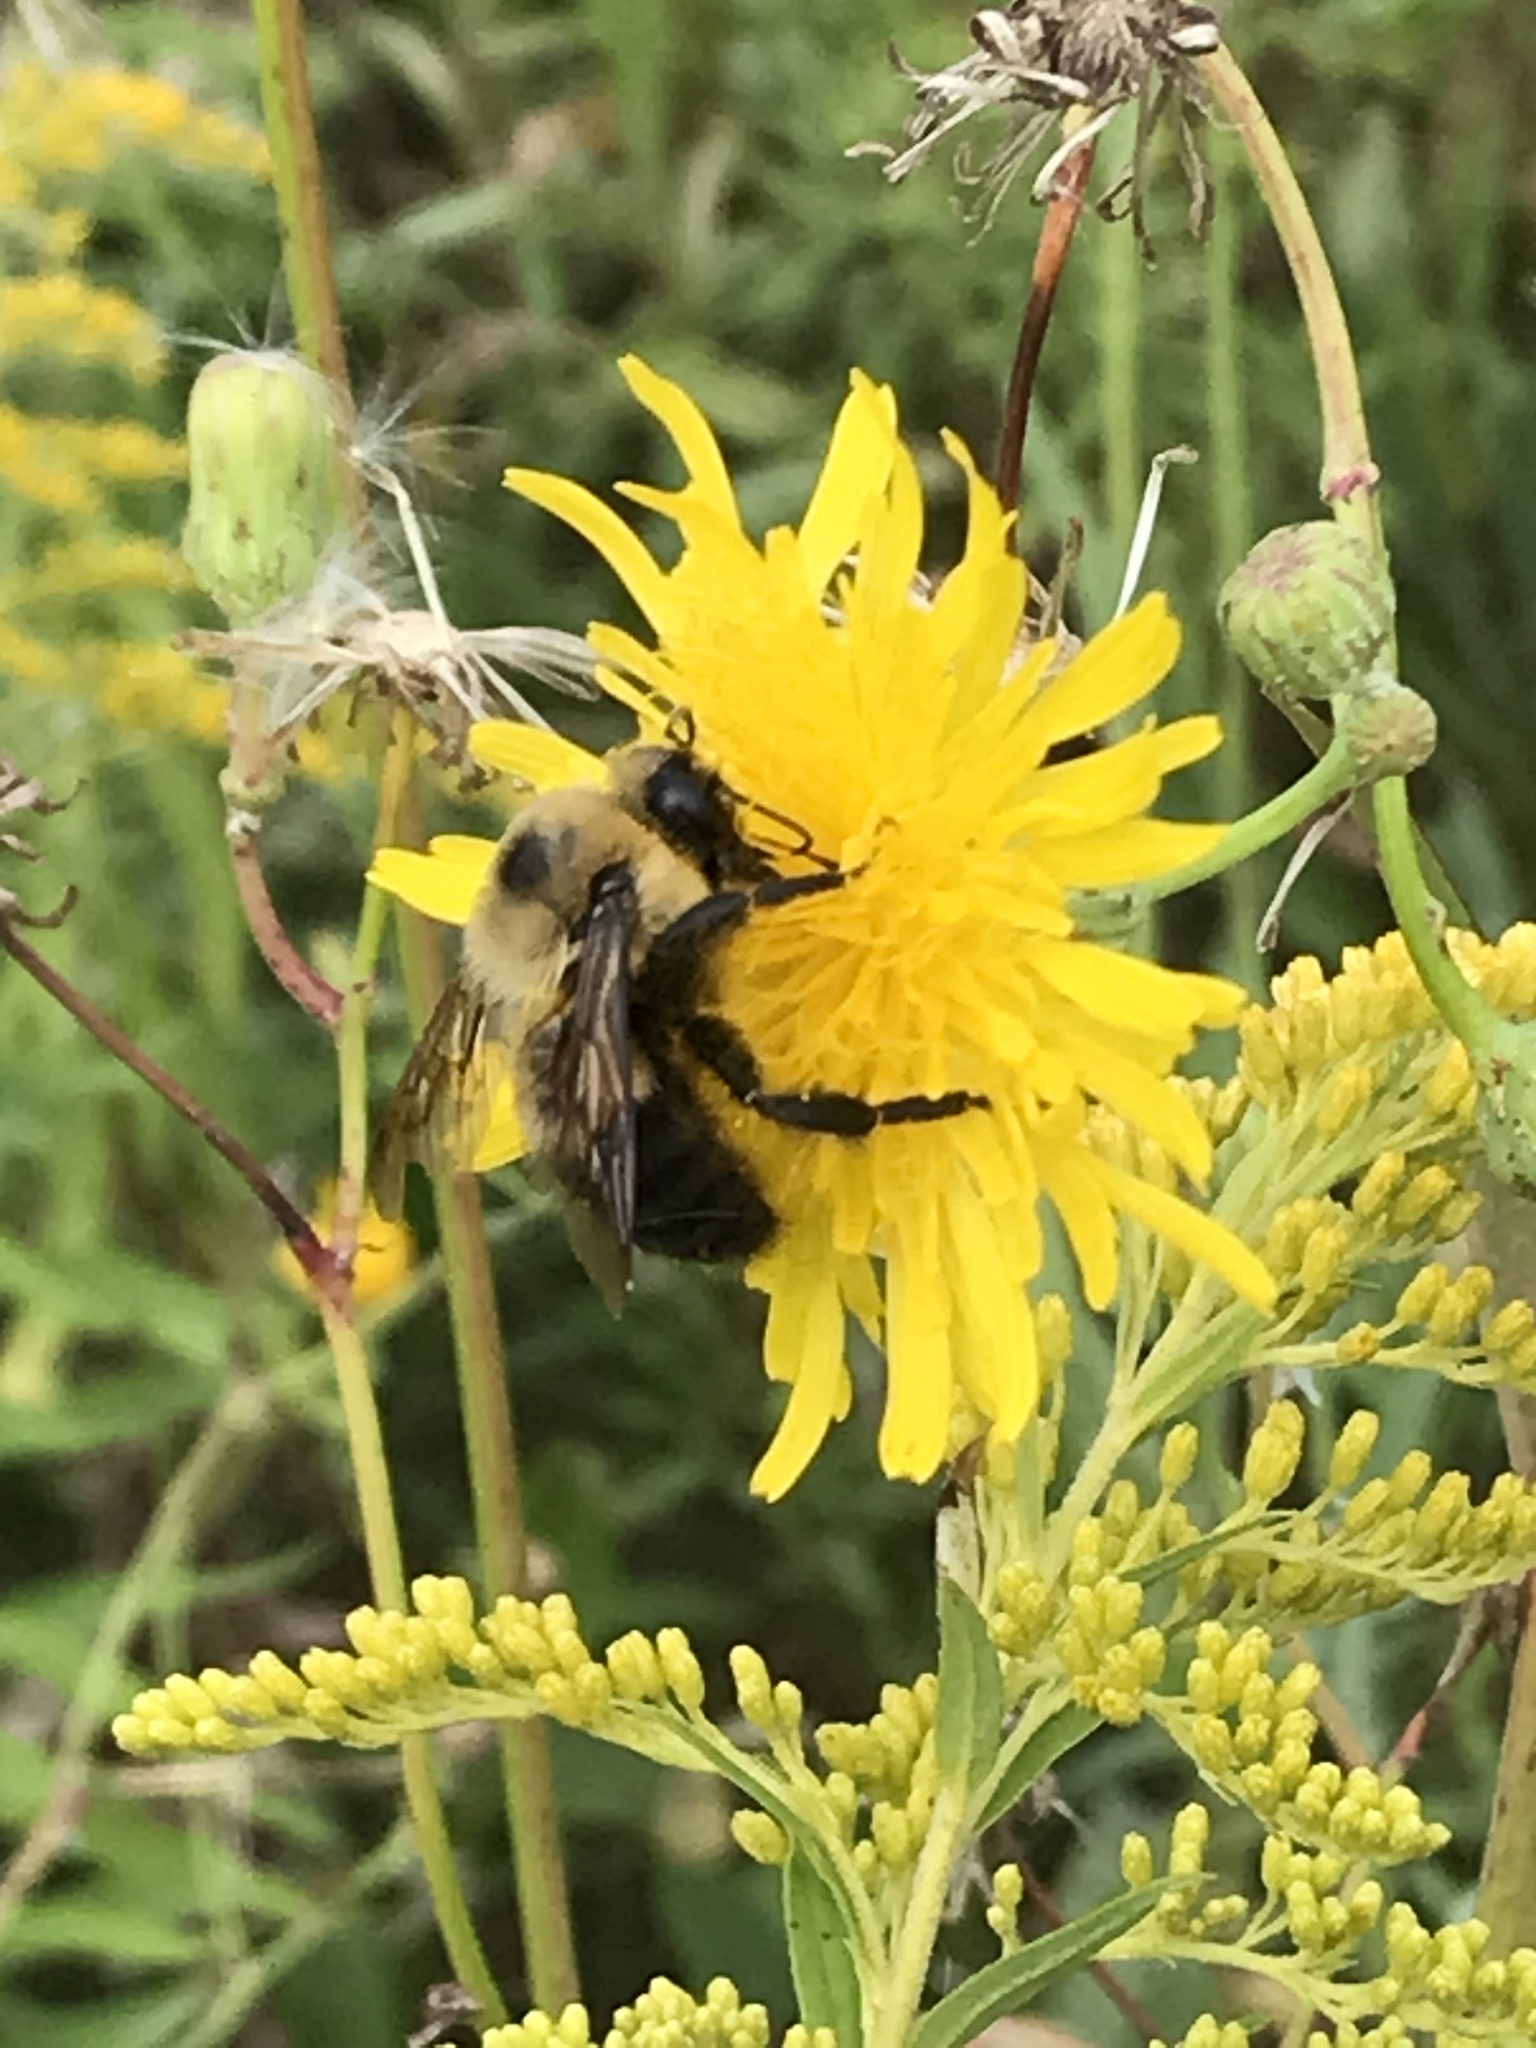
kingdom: Animalia
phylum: Arthropoda
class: Insecta
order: Hymenoptera
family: Apidae
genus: Bombus
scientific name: Bombus griseocollis
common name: Brown-belted bumble bee
